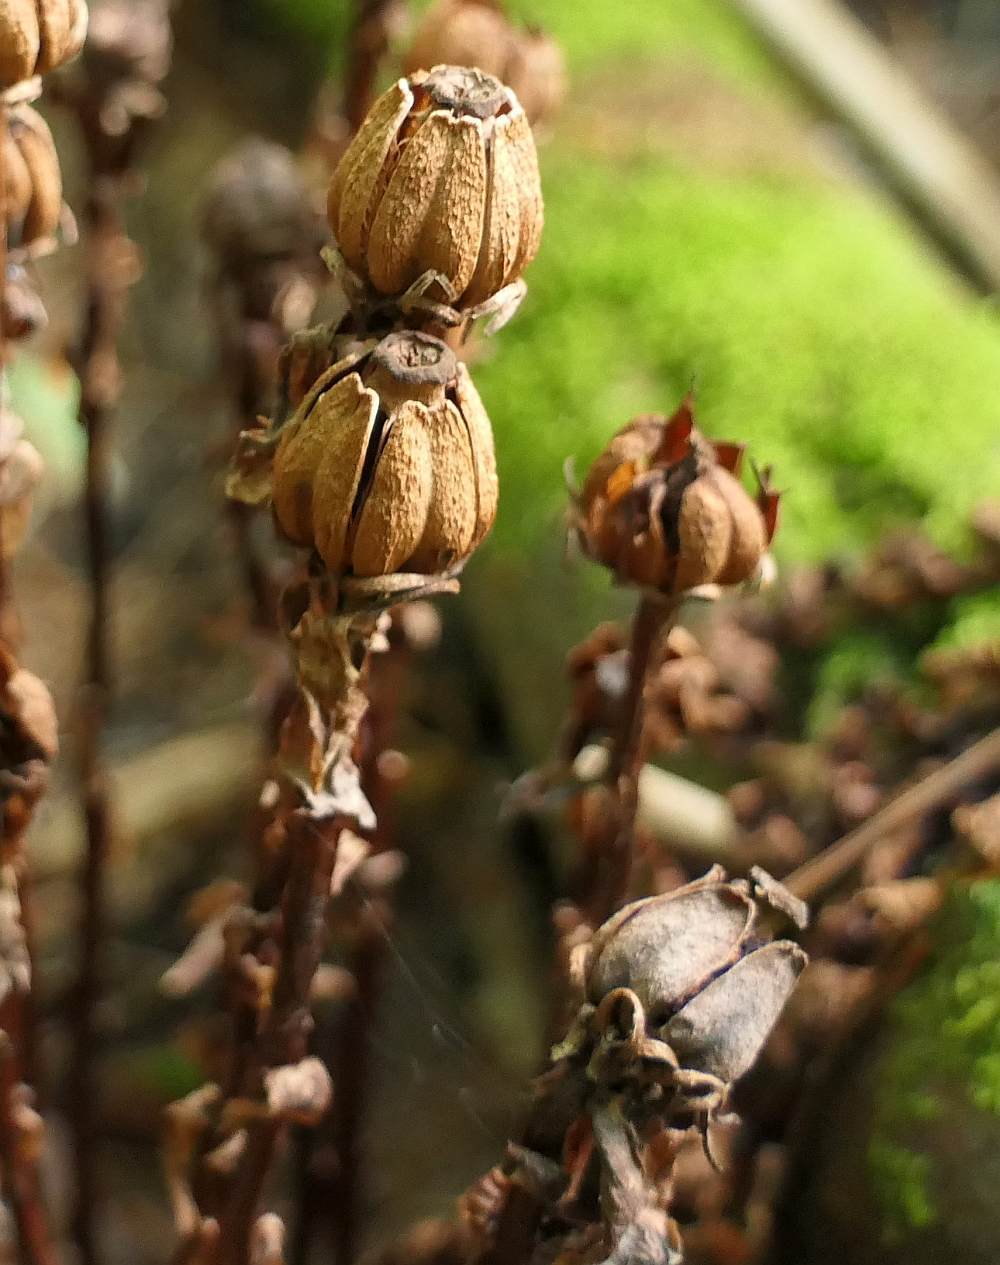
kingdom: Plantae
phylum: Tracheophyta
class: Magnoliopsida
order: Ericales
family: Ericaceae
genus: Monotropa
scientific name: Monotropa uniflora
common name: Convulsion root
